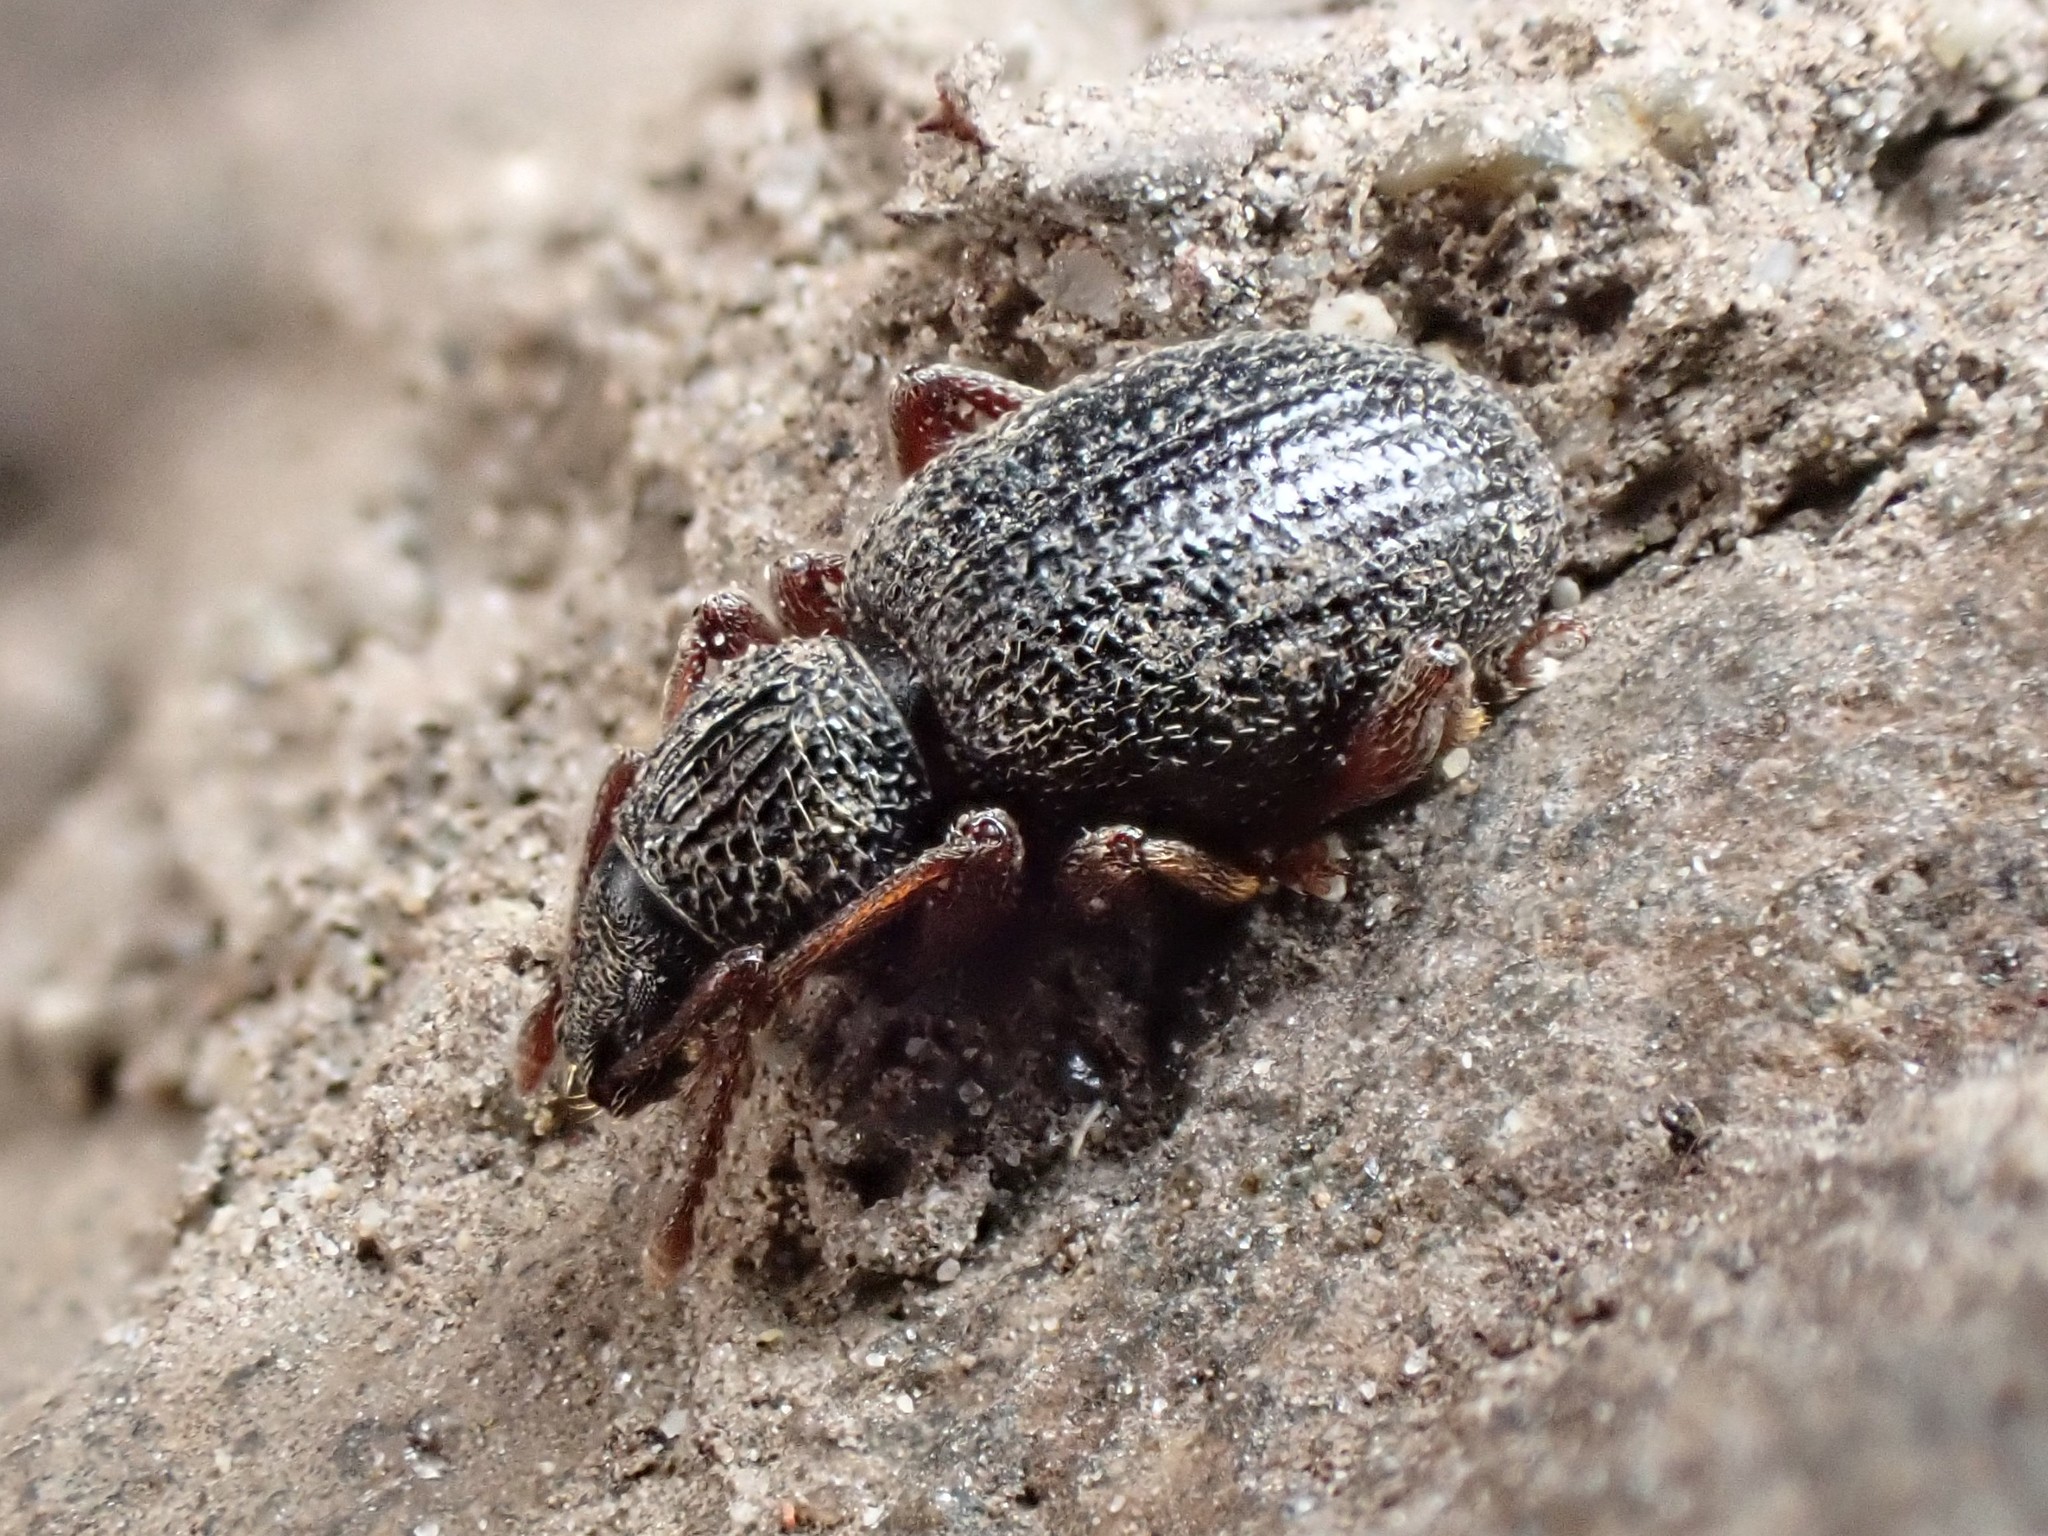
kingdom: Animalia
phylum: Arthropoda
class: Insecta
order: Coleoptera
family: Curculionidae
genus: Otiorhynchus
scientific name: Otiorhynchus ovatus
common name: Strawberry root weevil
